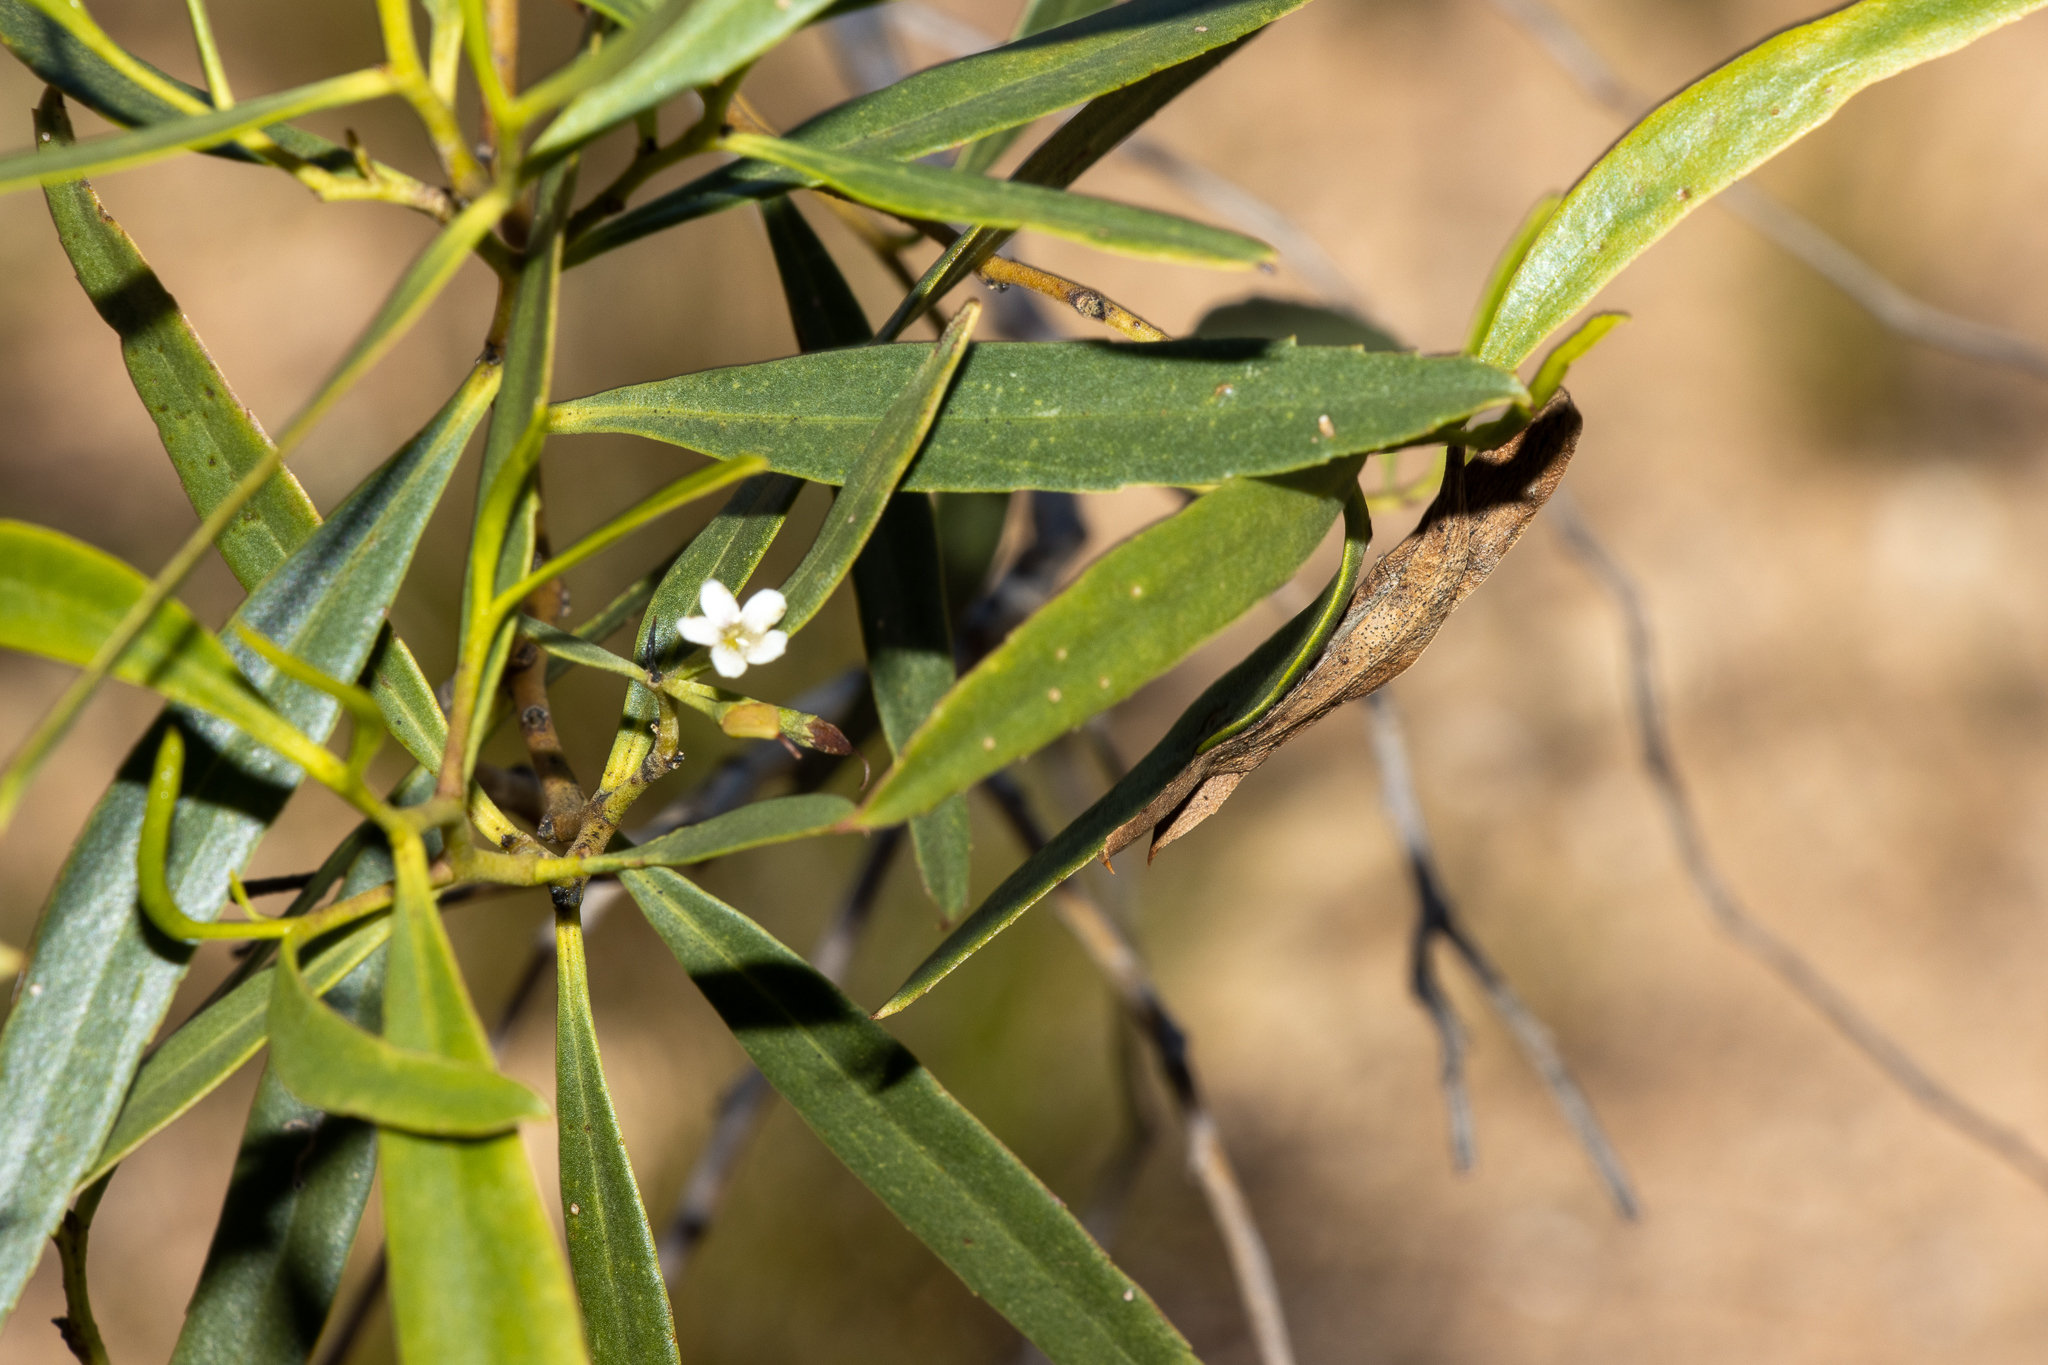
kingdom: Plantae
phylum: Tracheophyta
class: Magnoliopsida
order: Lamiales
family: Scrophulariaceae
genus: Myoporum
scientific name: Myoporum platycarpum
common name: Sugartree
